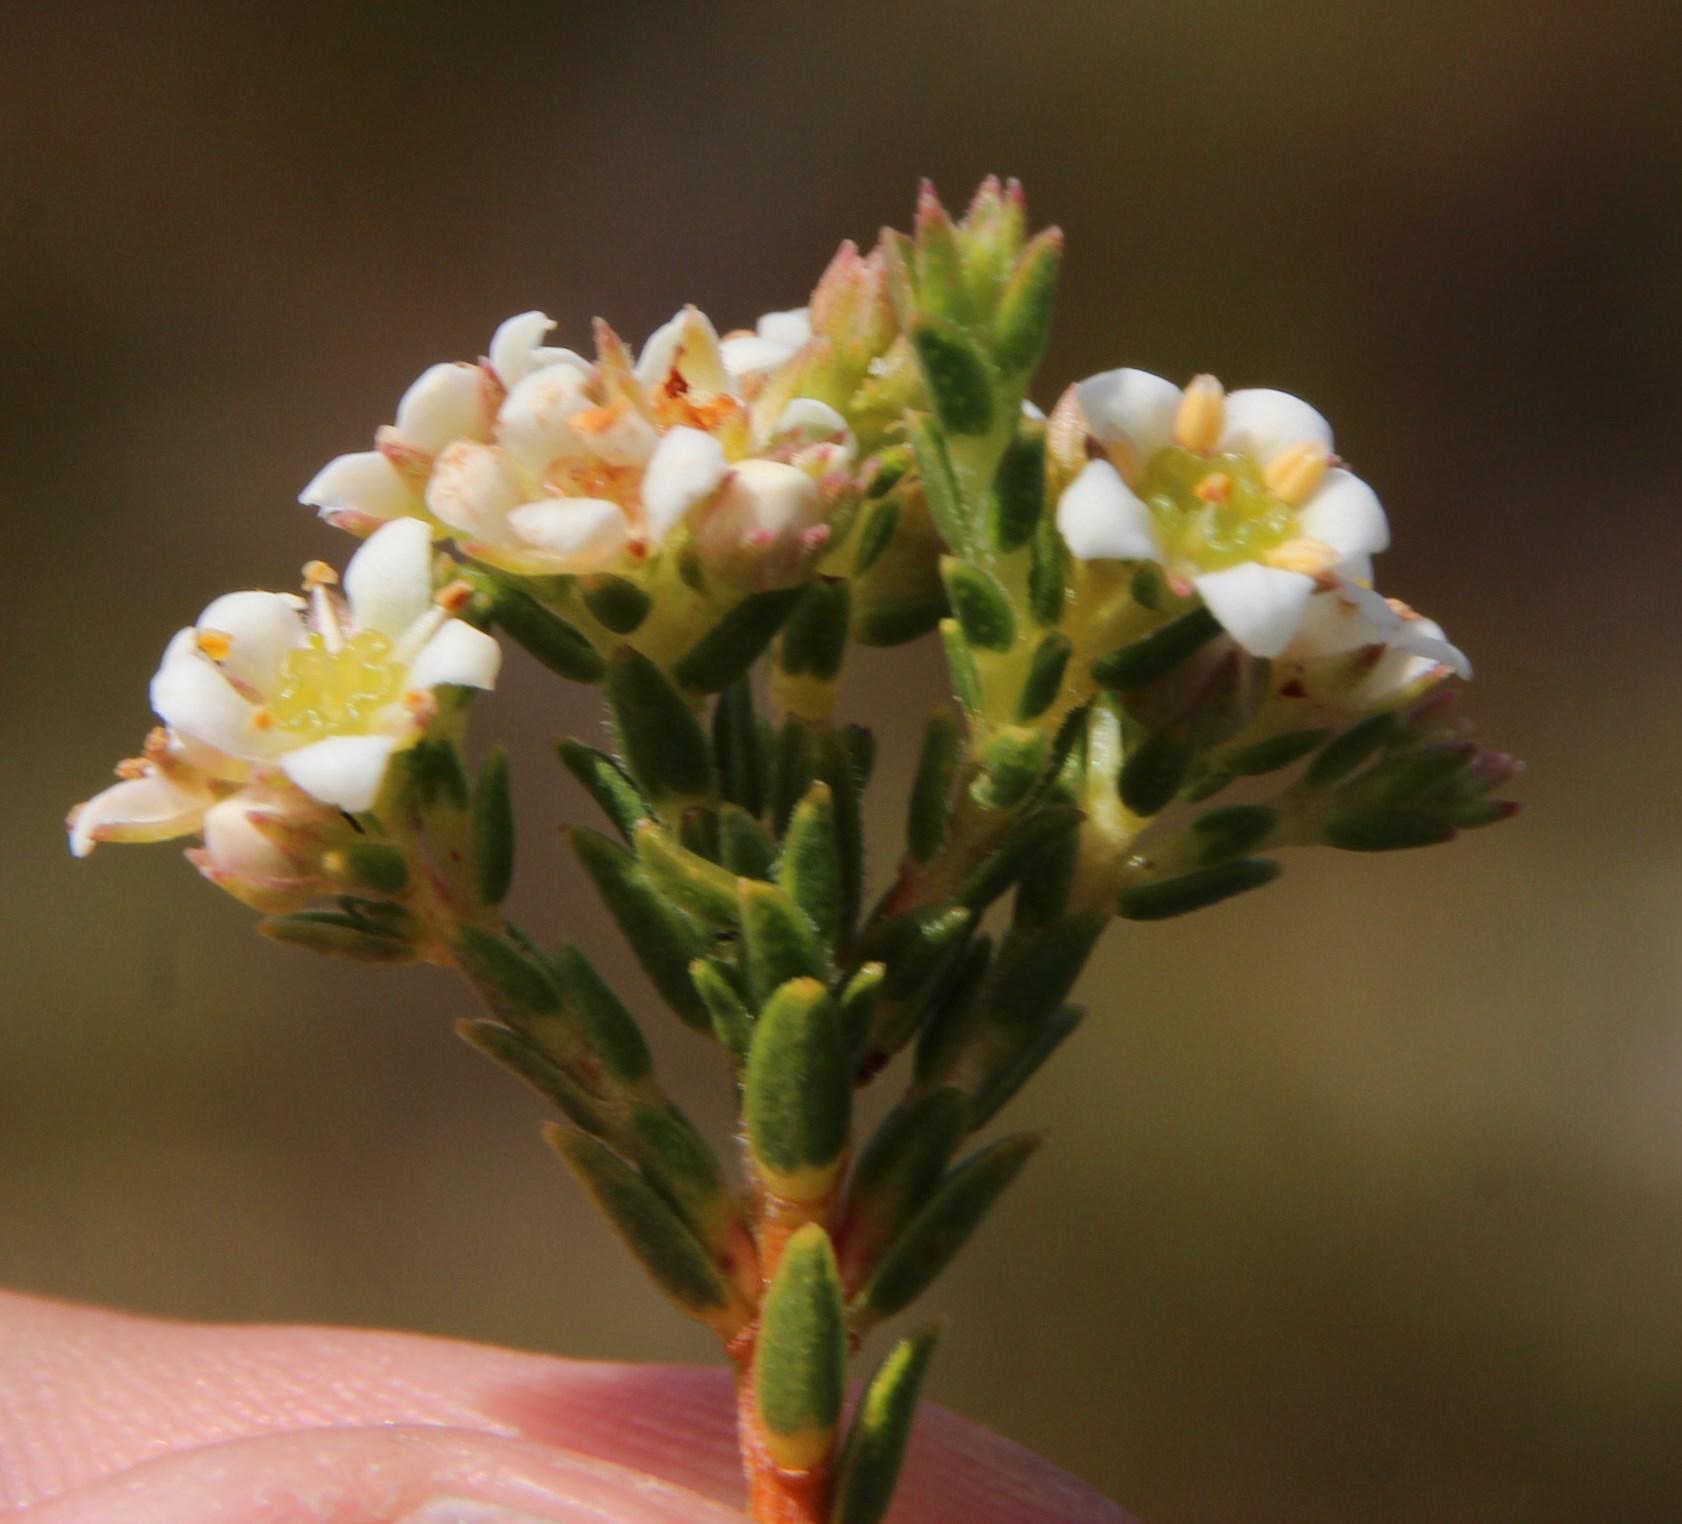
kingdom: Plantae
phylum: Tracheophyta
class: Magnoliopsida
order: Sapindales
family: Rutaceae
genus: Diosma
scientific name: Diosma oppositifolia
